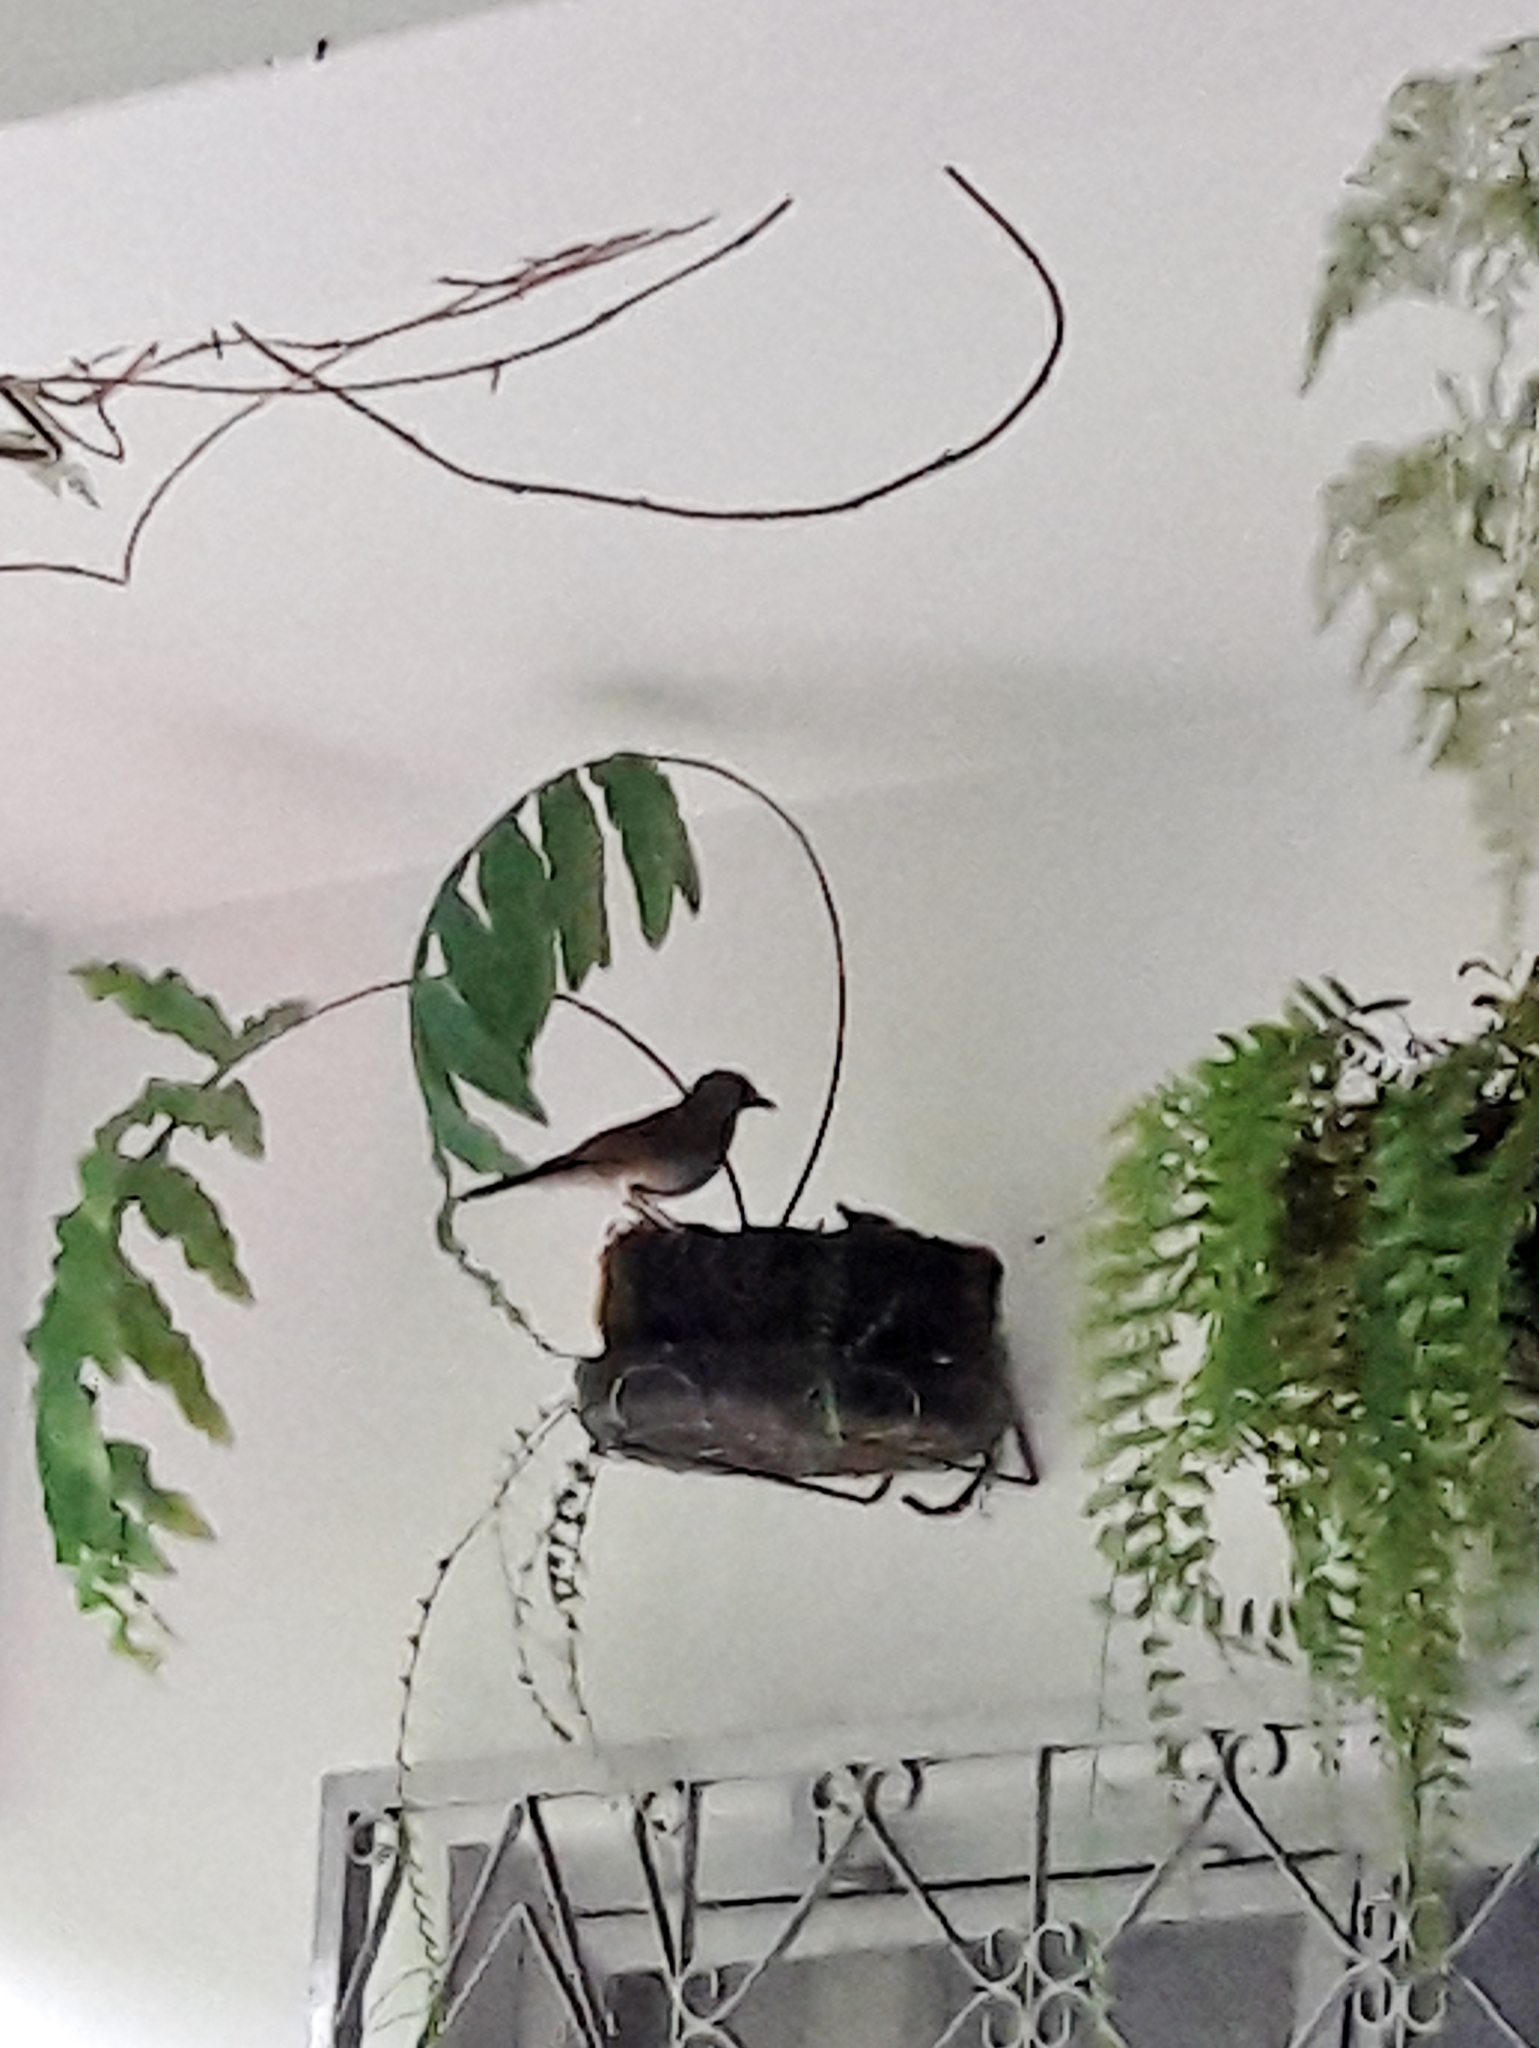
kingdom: Animalia
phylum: Chordata
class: Aves
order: Passeriformes
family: Turdidae
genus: Turdus
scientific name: Turdus amaurochalinus
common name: Creamy-bellied thrush
